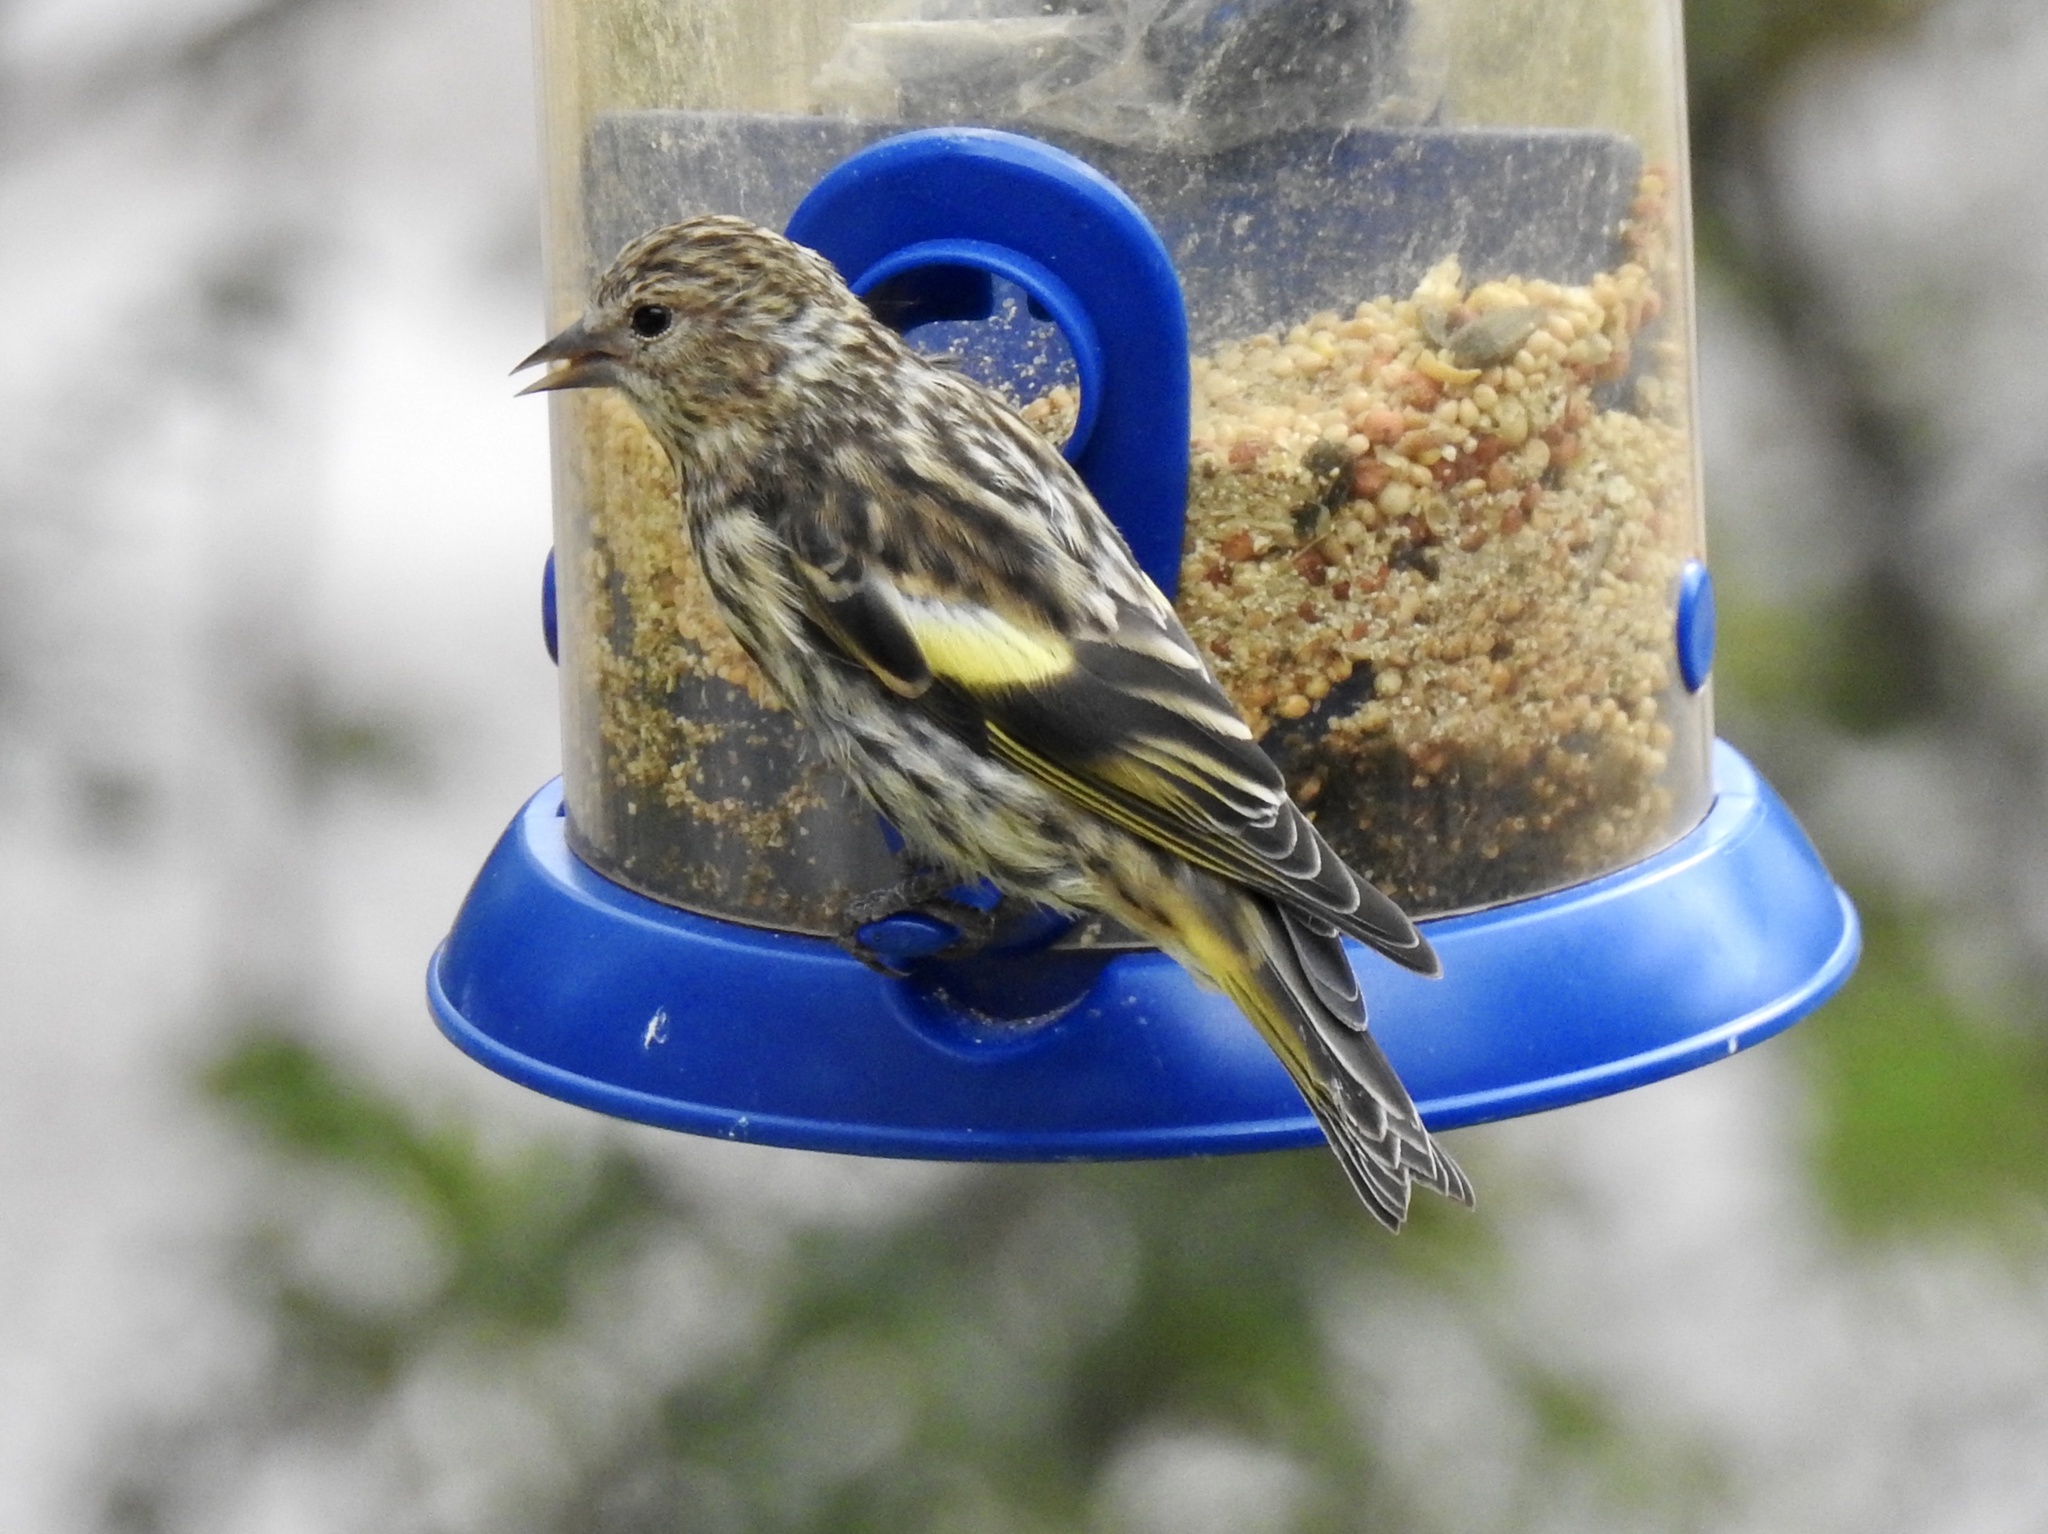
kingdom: Animalia
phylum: Chordata
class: Aves
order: Passeriformes
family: Fringillidae
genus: Spinus
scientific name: Spinus pinus
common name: Pine siskin
